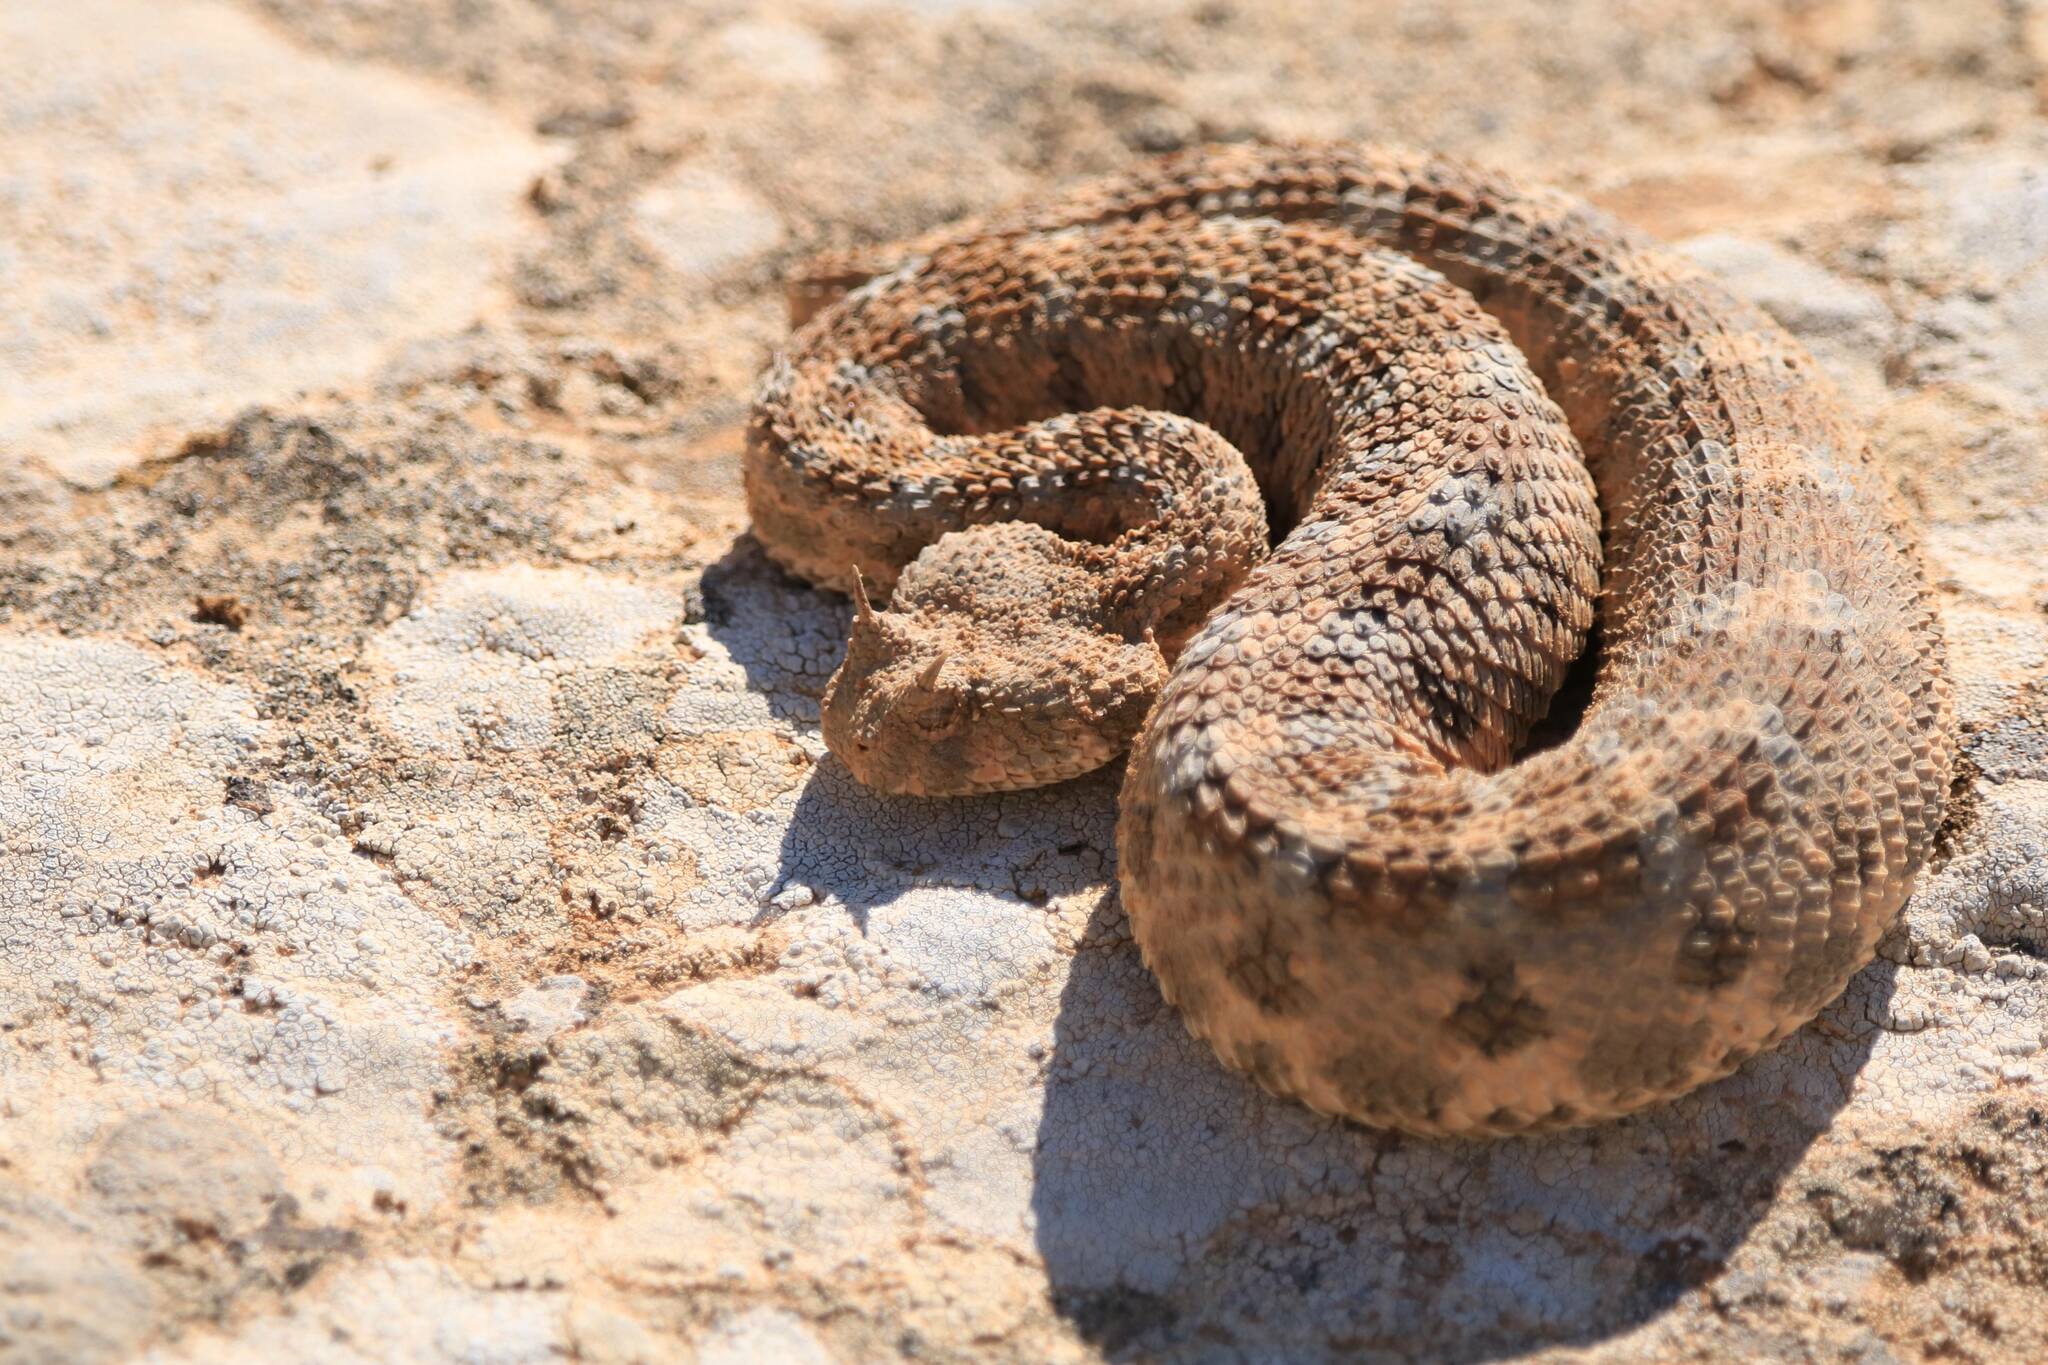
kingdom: Animalia
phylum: Chordata
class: Squamata
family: Viperidae
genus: Cerastes
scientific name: Cerastes cerastes
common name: Desert horned viper
